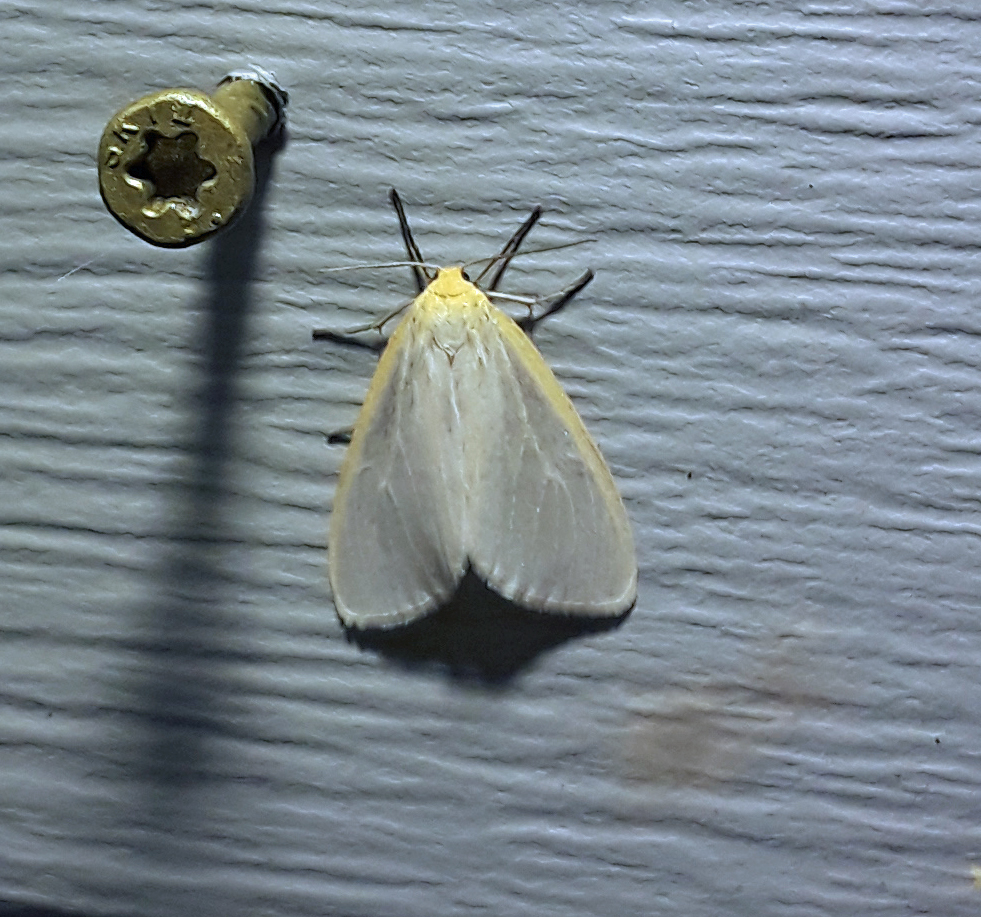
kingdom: Animalia
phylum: Arthropoda
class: Insecta
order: Lepidoptera
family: Erebidae
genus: Cycnia
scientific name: Cycnia tenera
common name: Delicate cycnia moth
